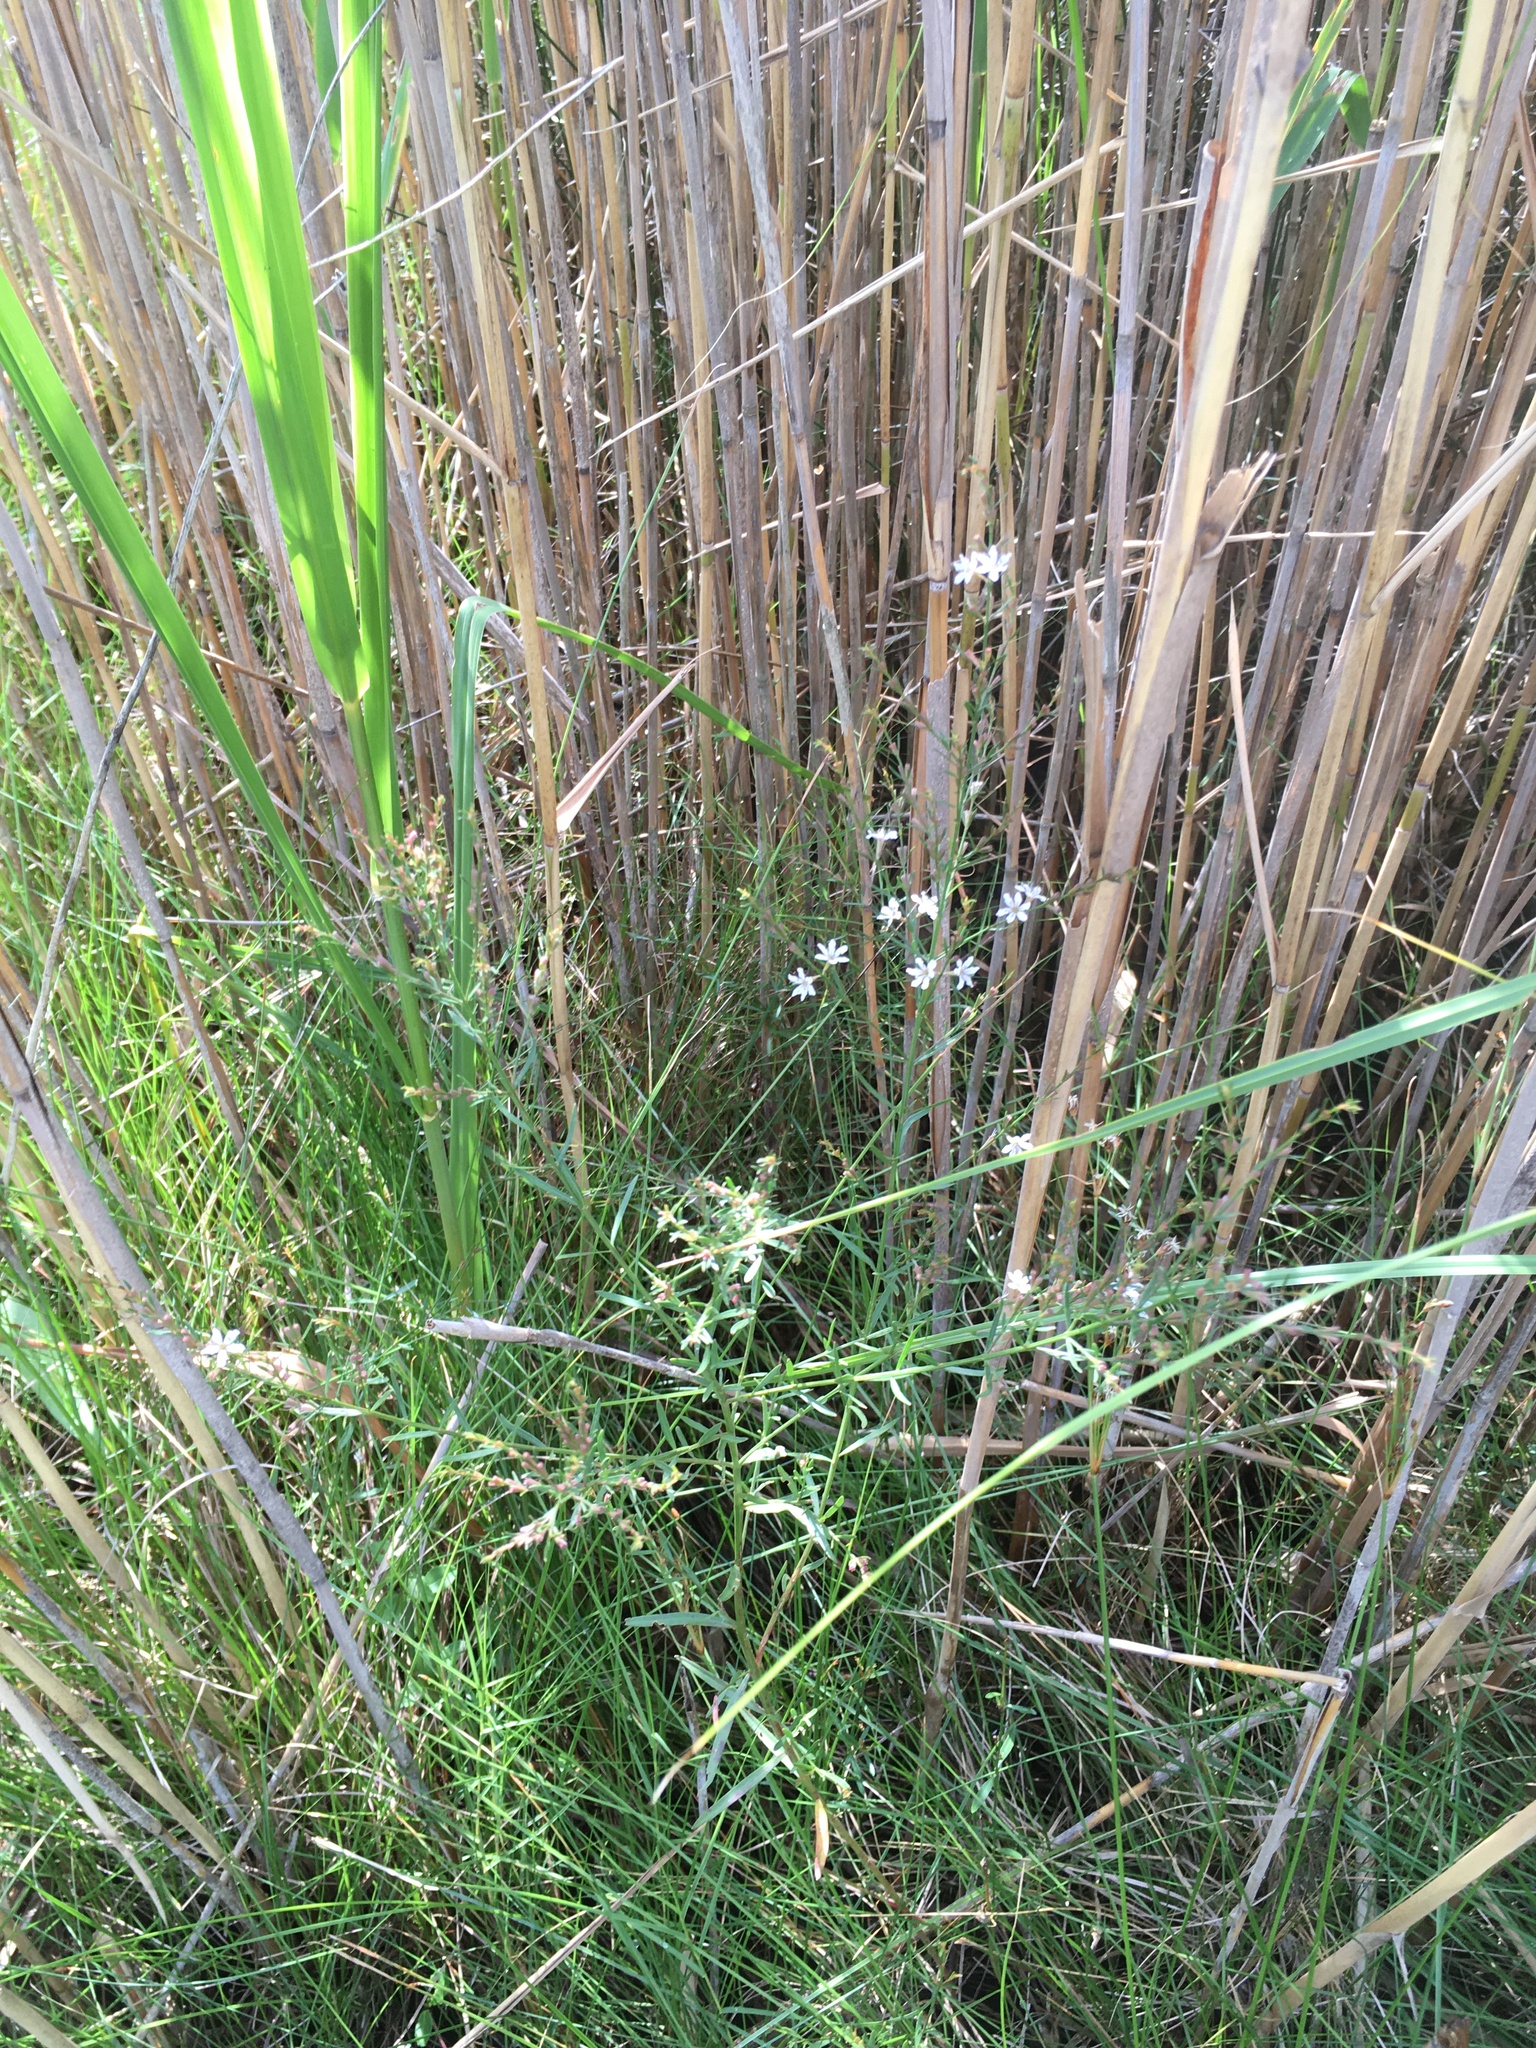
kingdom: Plantae
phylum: Tracheophyta
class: Magnoliopsida
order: Myrtales
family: Lythraceae
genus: Lythrum
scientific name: Lythrum lineare
